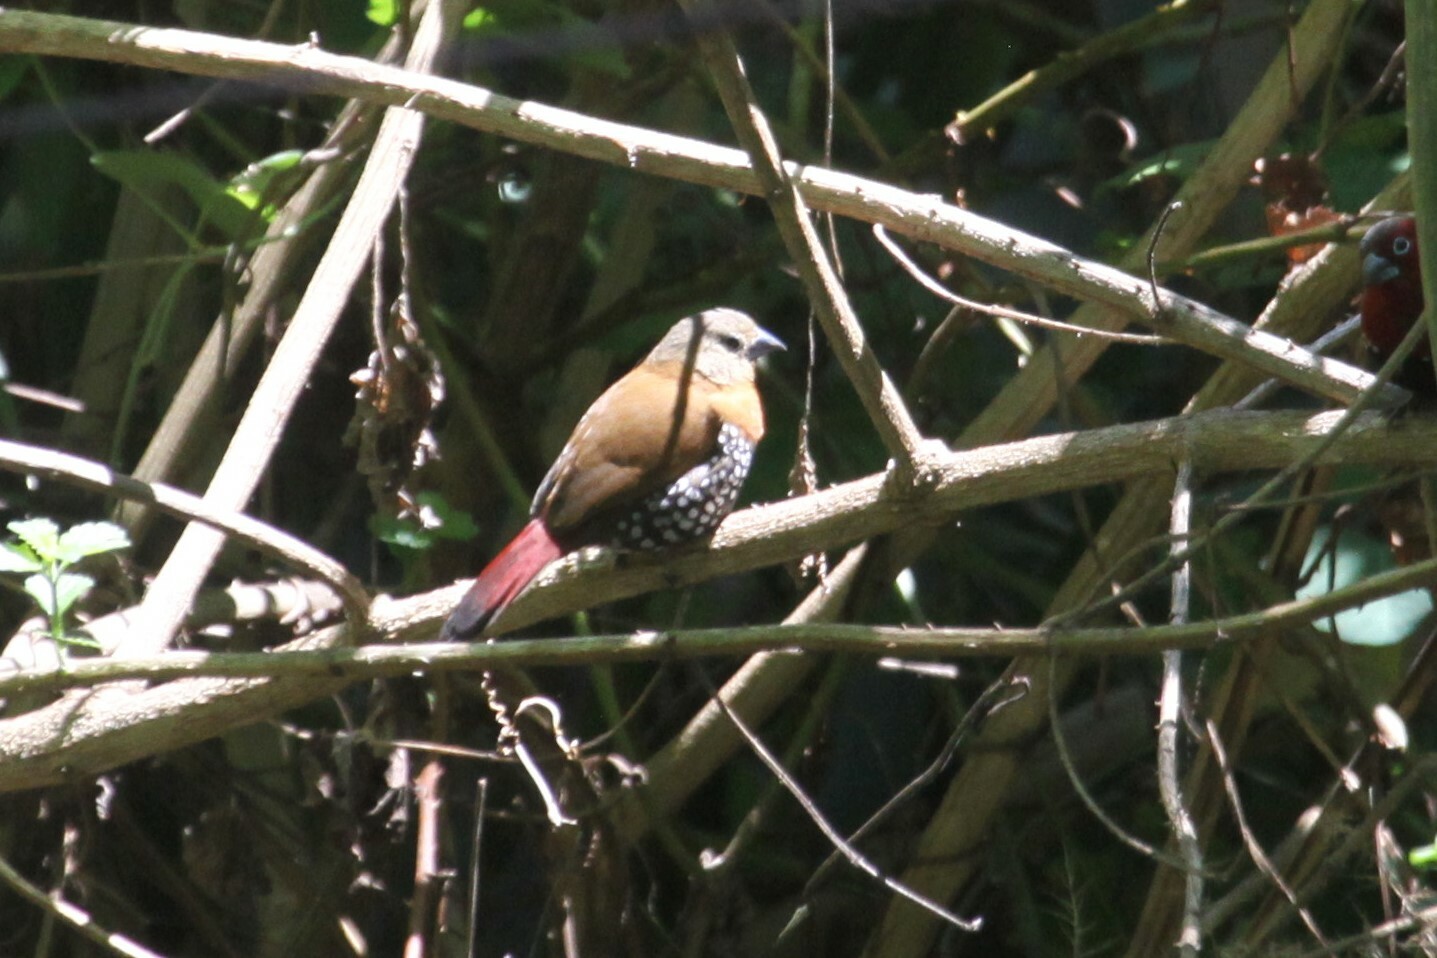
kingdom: Animalia
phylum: Chordata
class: Aves
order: Passeriformes
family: Estrildidae
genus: Hypargos
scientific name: Hypargos niveoguttatus
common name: Red-throated twinspot
